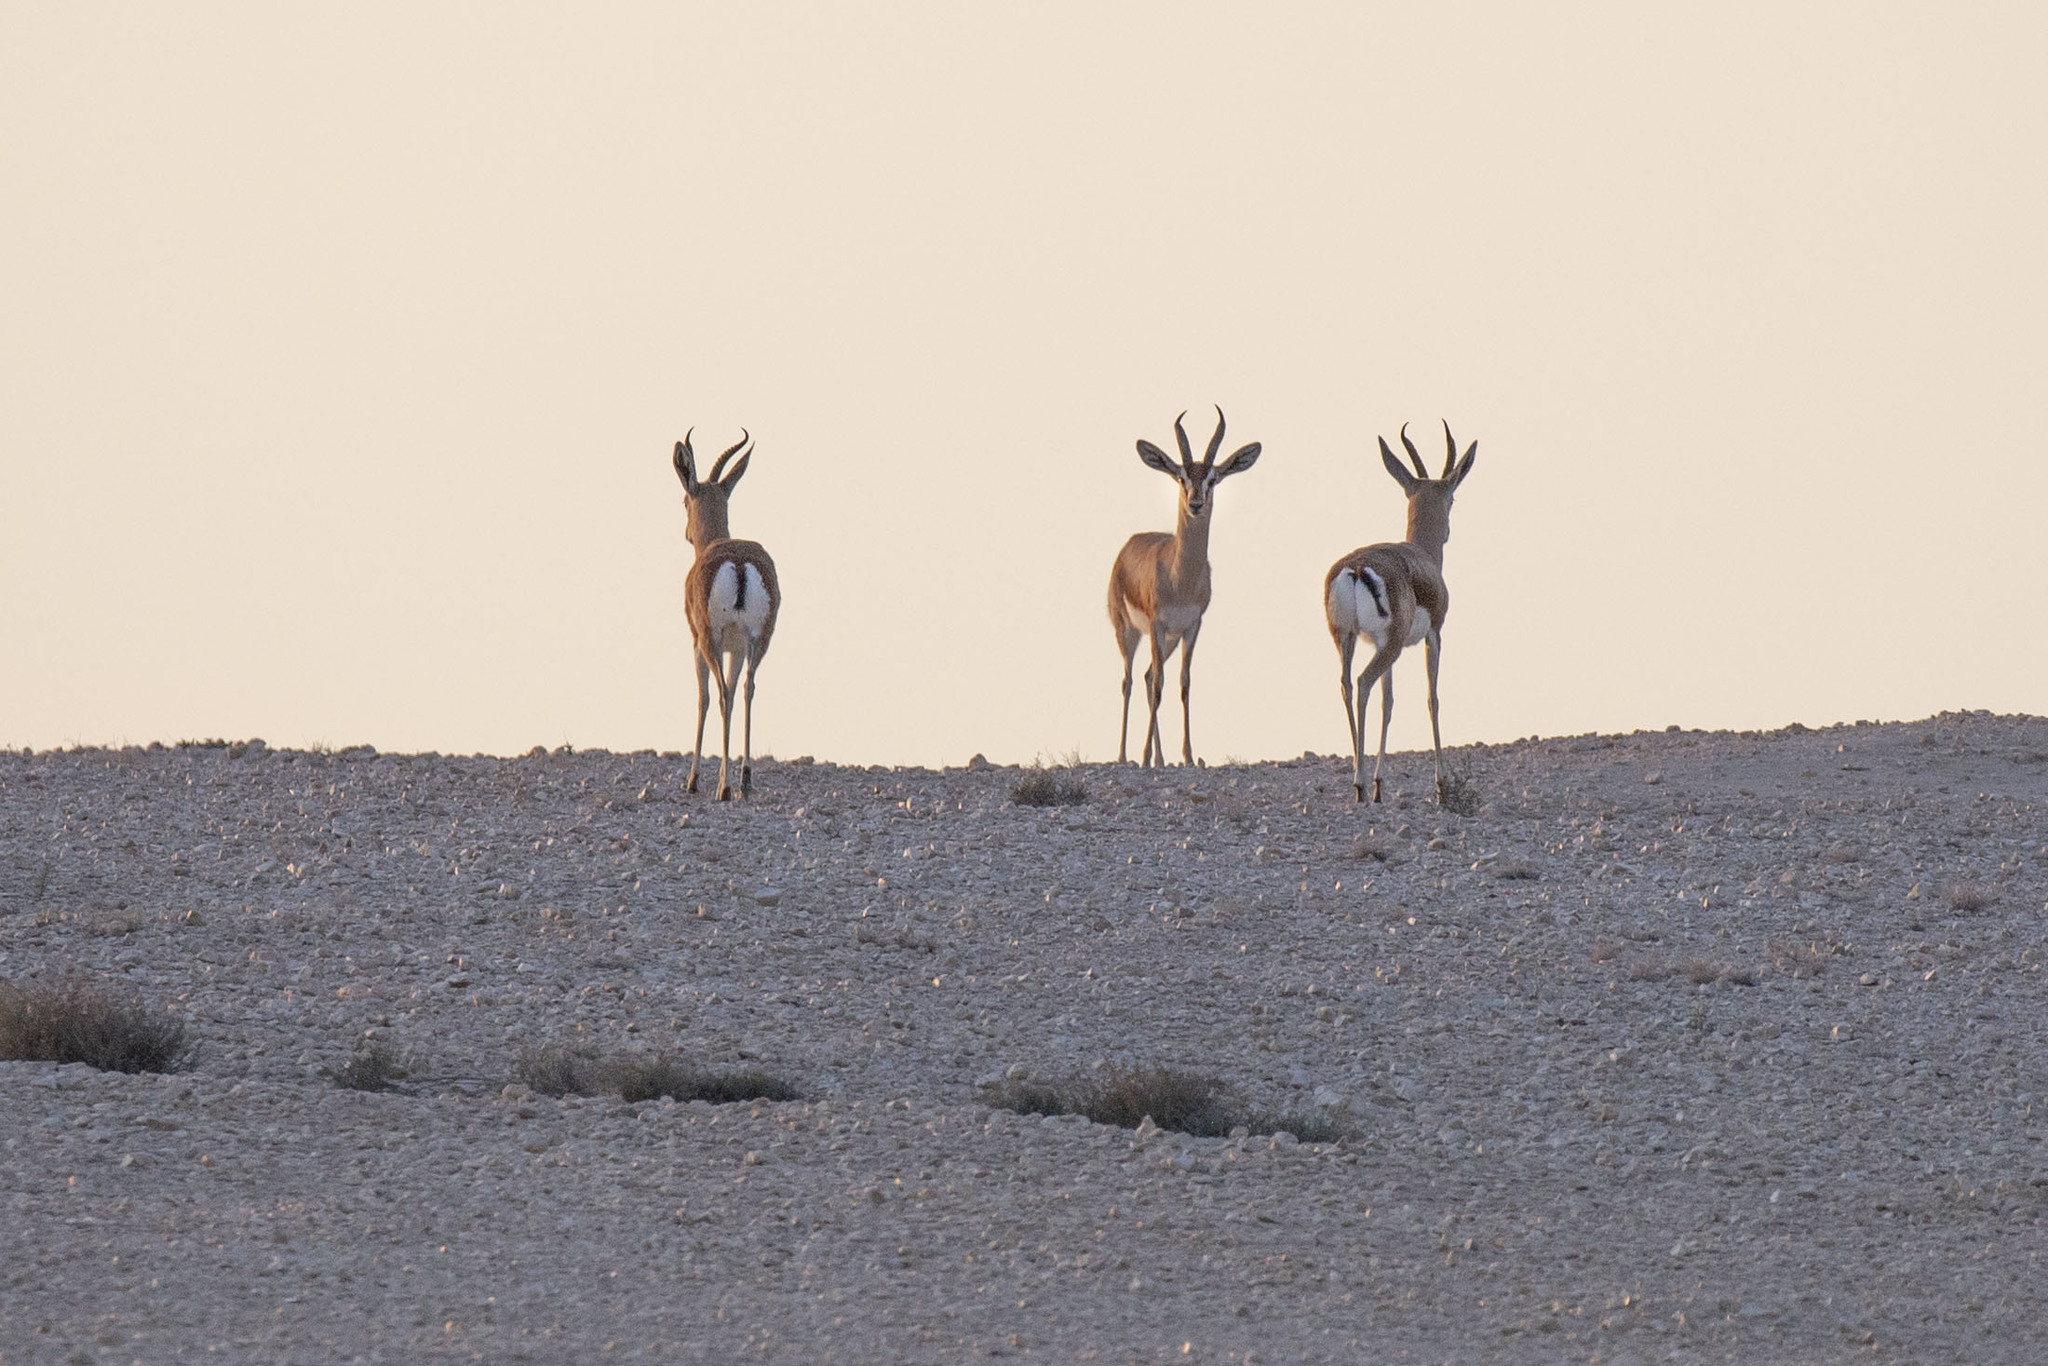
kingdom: Animalia
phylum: Chordata
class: Mammalia
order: Artiodactyla
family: Bovidae
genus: Gazella
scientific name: Gazella dorcas
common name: Dorcas gazelle
